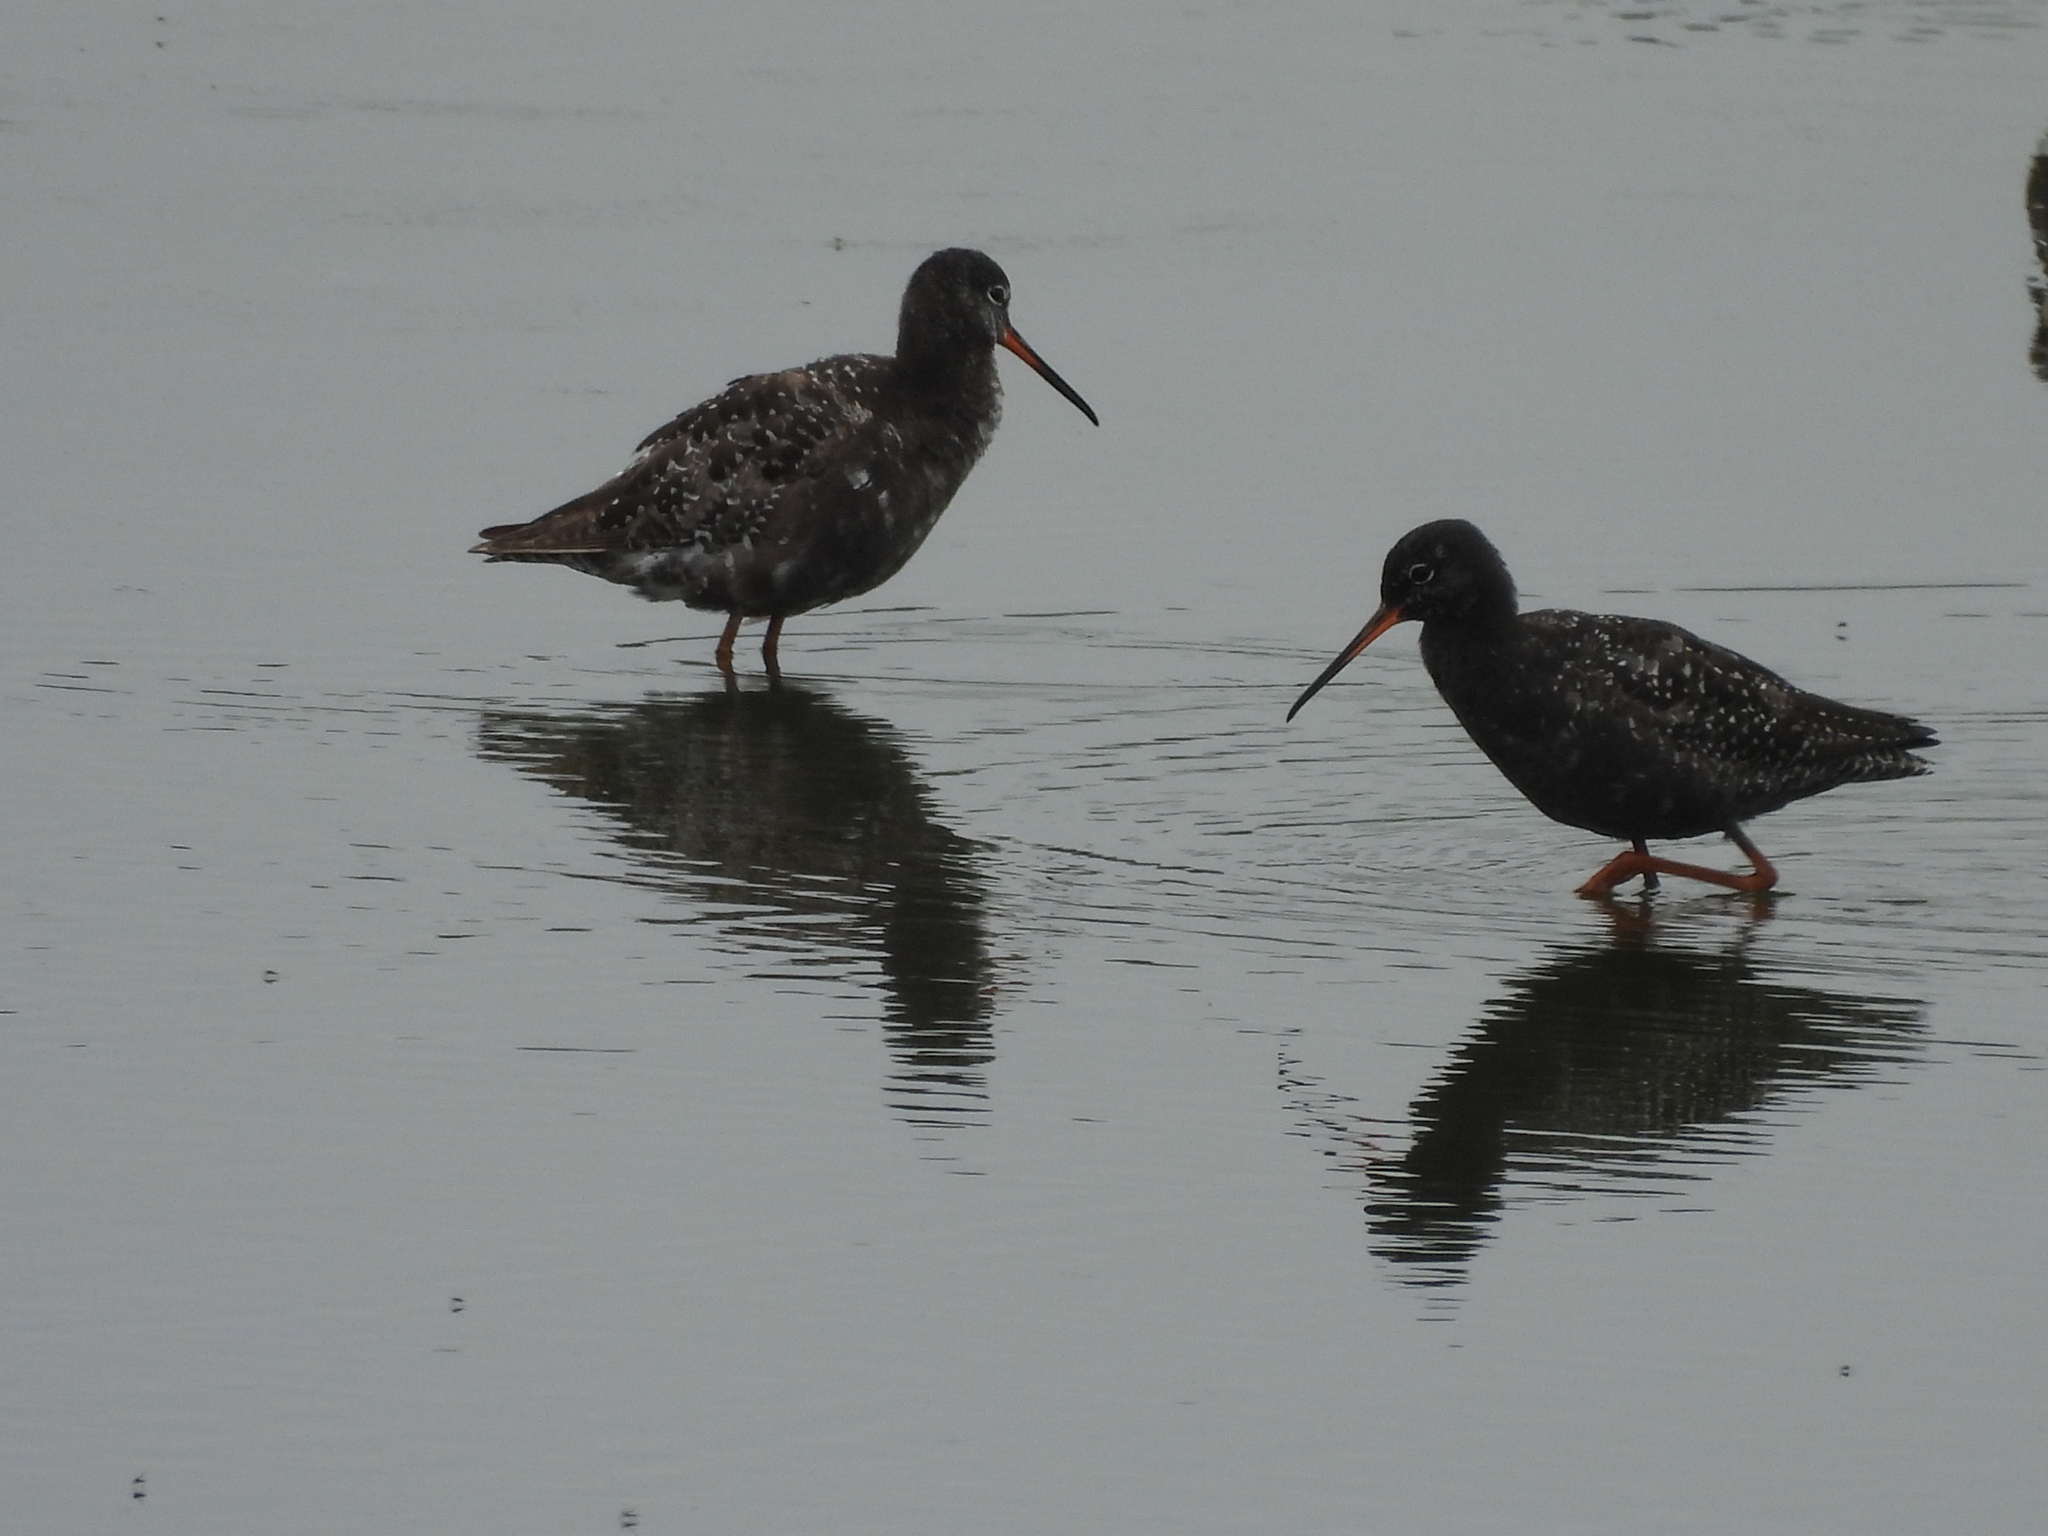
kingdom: Animalia
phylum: Chordata
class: Aves
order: Charadriiformes
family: Scolopacidae
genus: Tringa
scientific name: Tringa erythropus
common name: Spotted redshank
